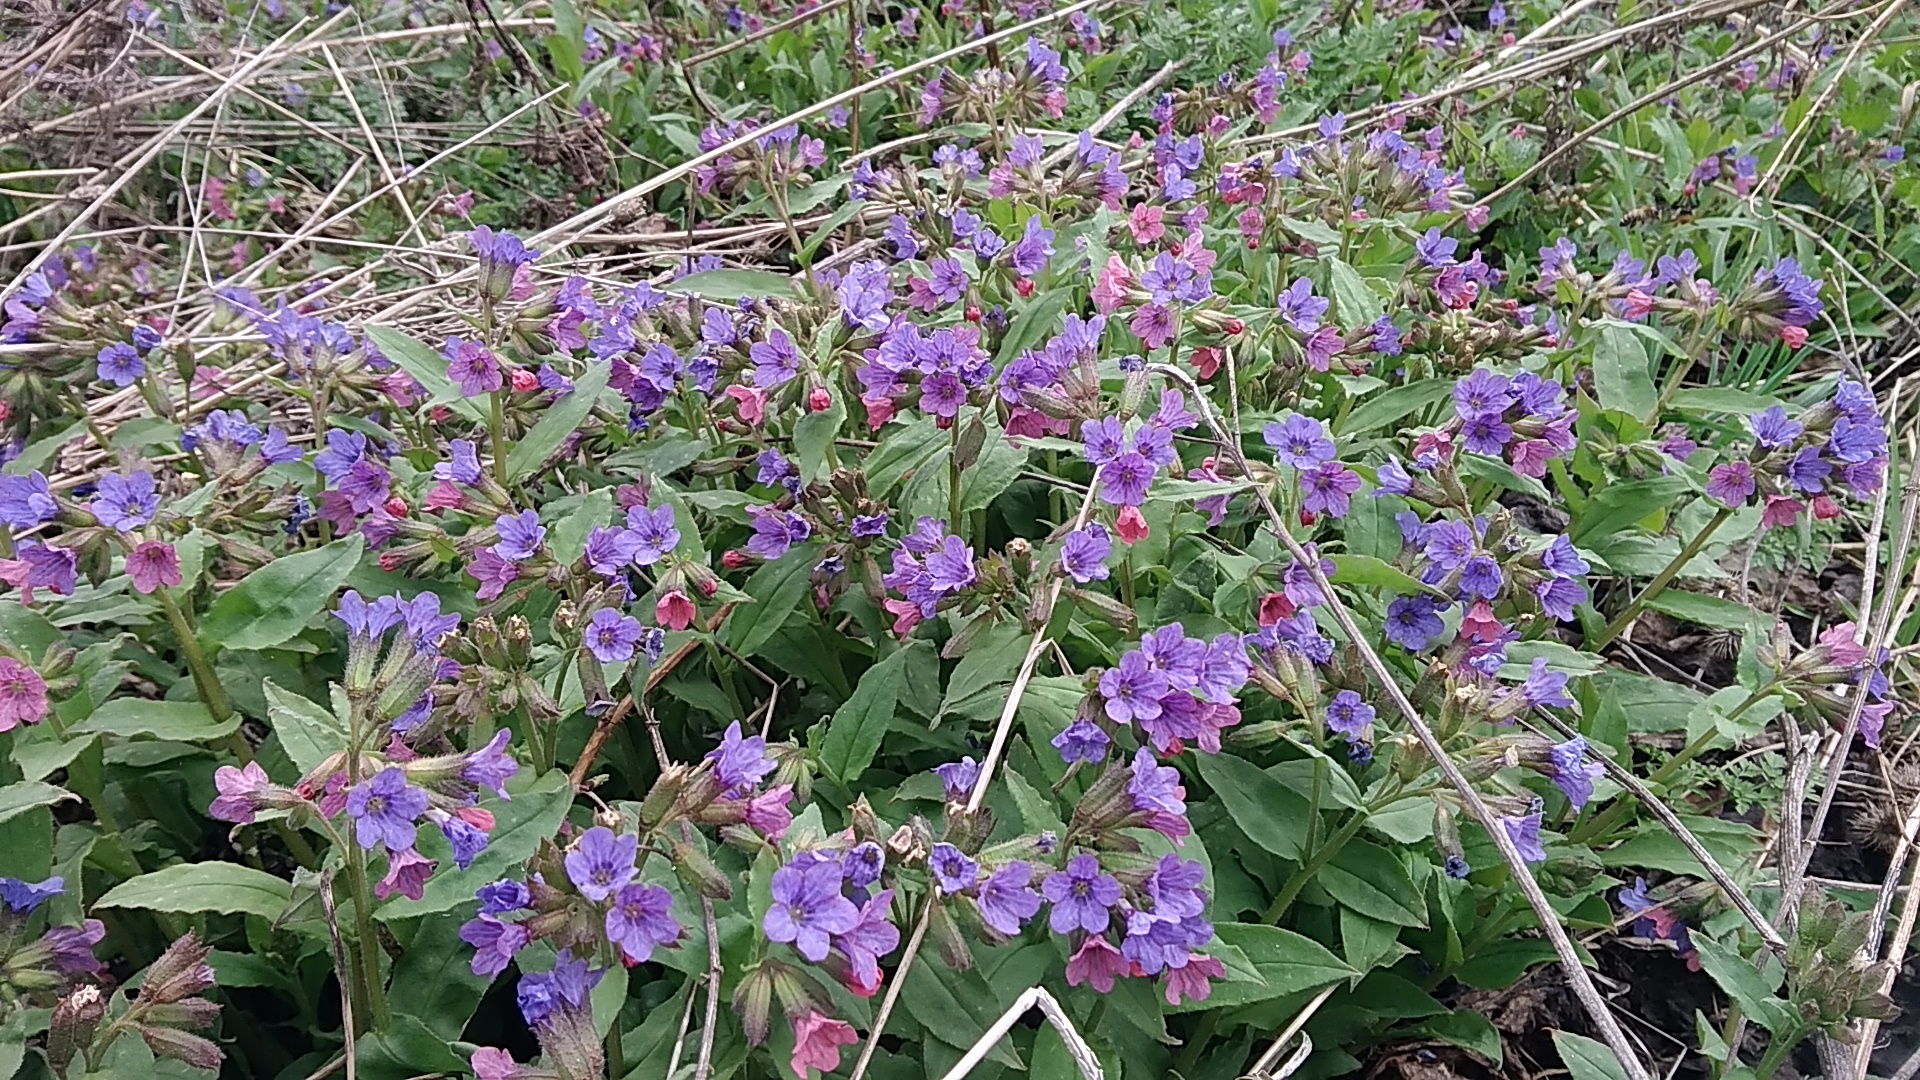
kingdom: Plantae
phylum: Tracheophyta
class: Magnoliopsida
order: Boraginales
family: Boraginaceae
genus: Pulmonaria
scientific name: Pulmonaria obscura
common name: Suffolk lungwort
